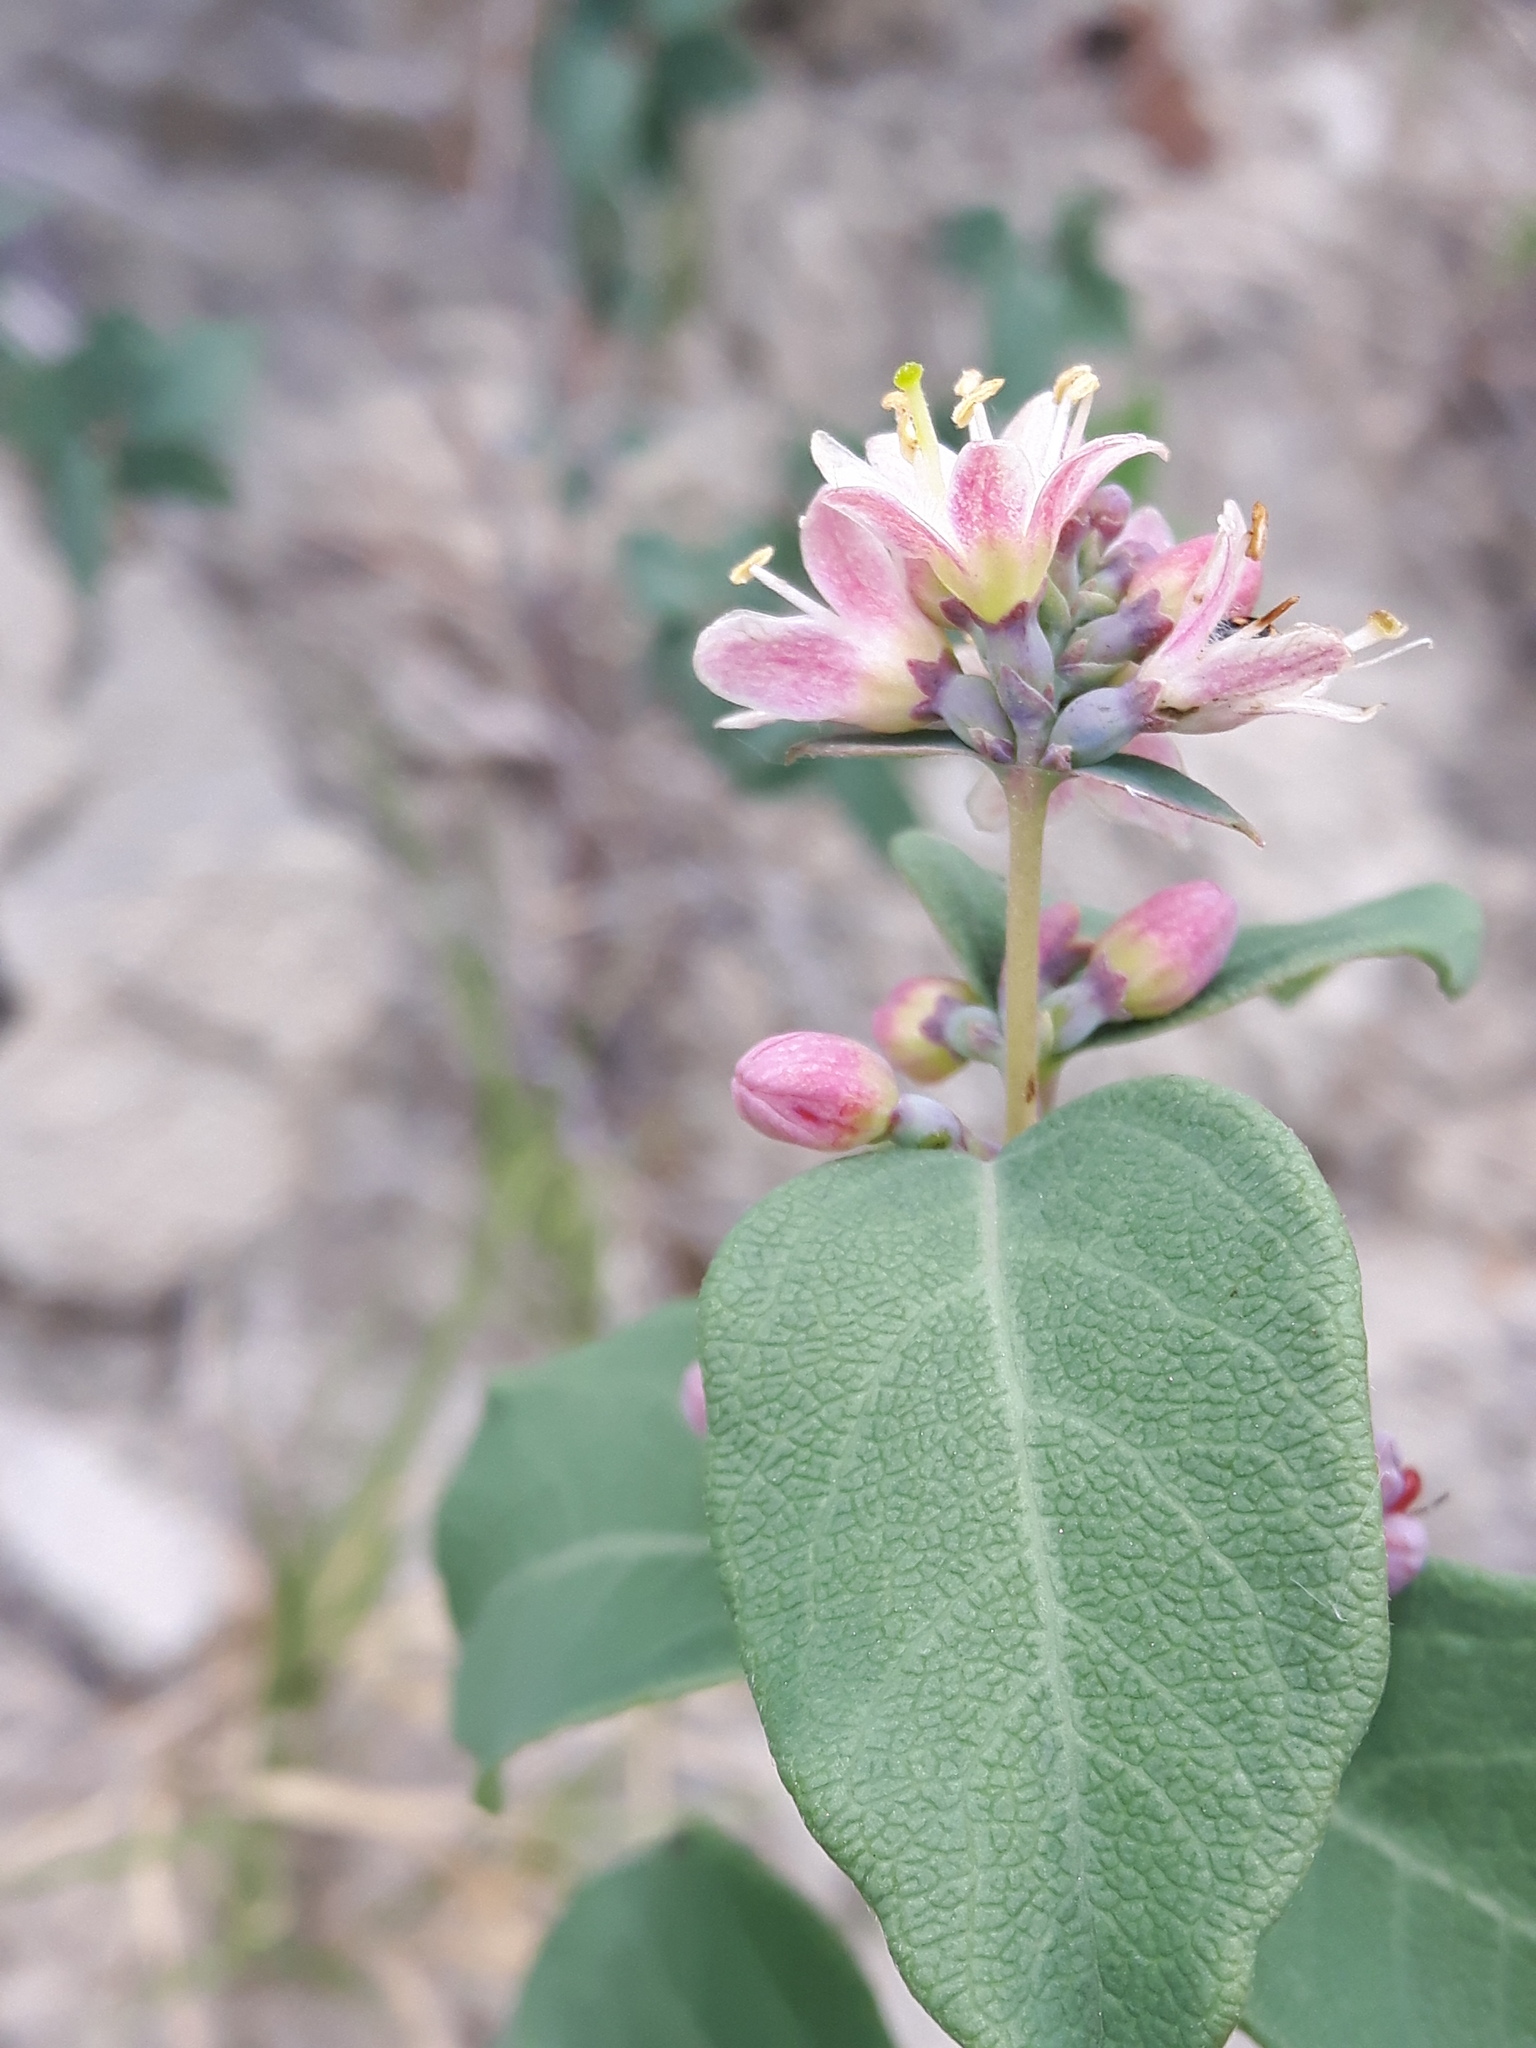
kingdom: Plantae
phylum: Tracheophyta
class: Magnoliopsida
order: Dipsacales
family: Caprifoliaceae
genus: Symphoricarpos
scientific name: Symphoricarpos occidentalis
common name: Wolfberry
